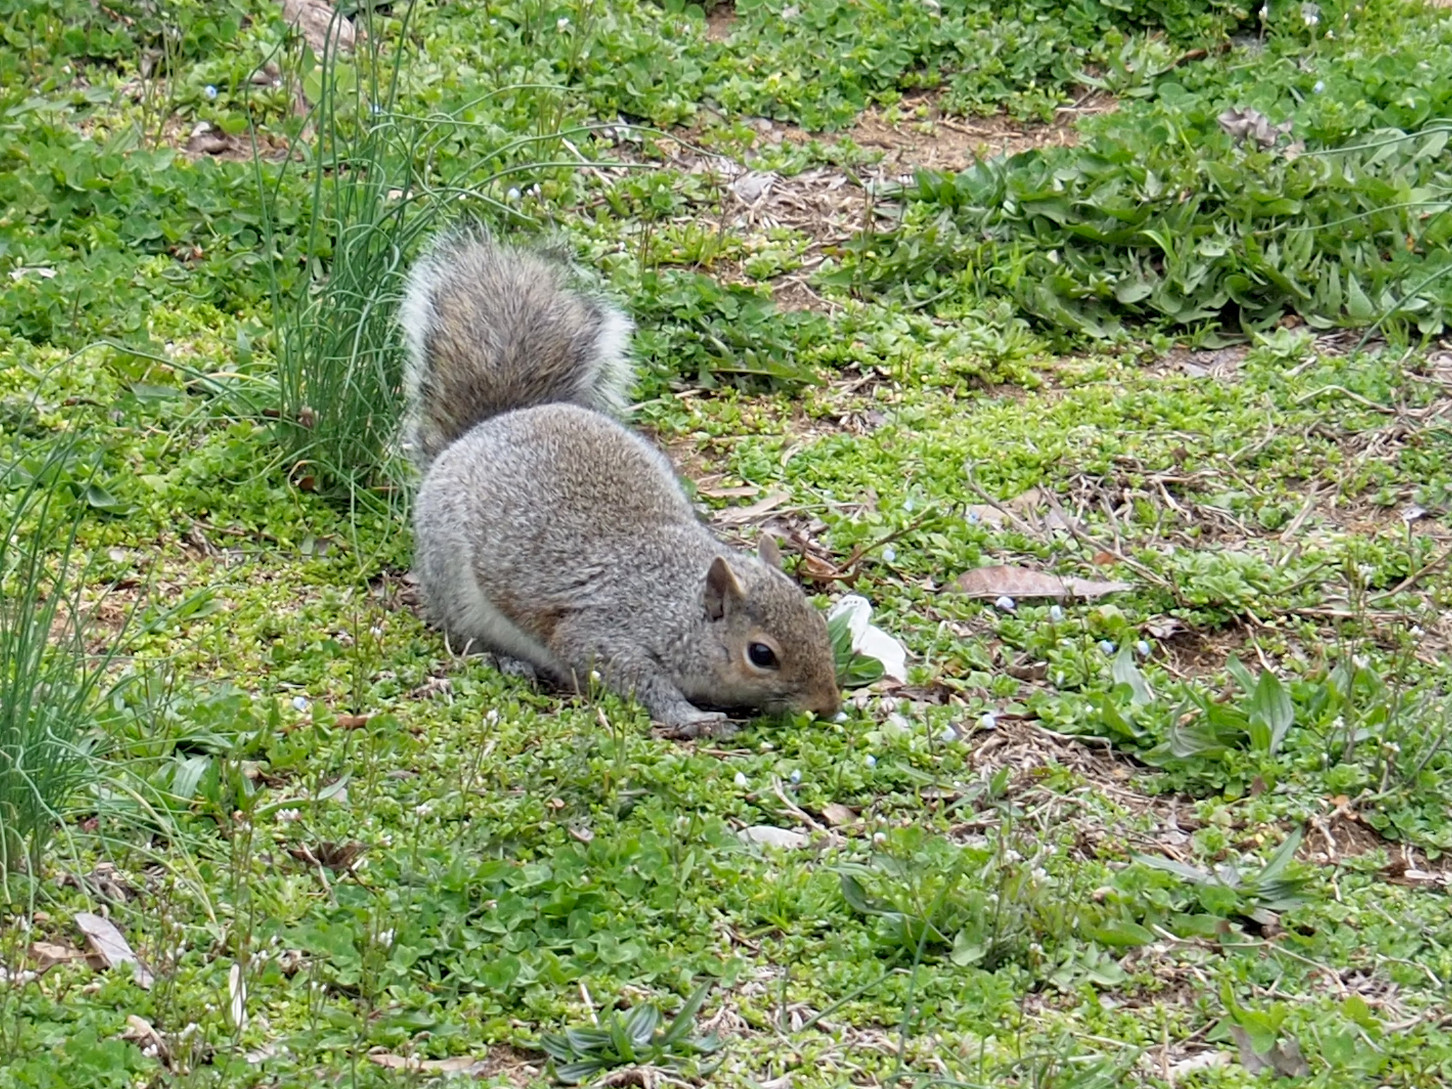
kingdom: Animalia
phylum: Chordata
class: Mammalia
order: Rodentia
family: Sciuridae
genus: Sciurus
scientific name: Sciurus carolinensis
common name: Eastern gray squirrel
